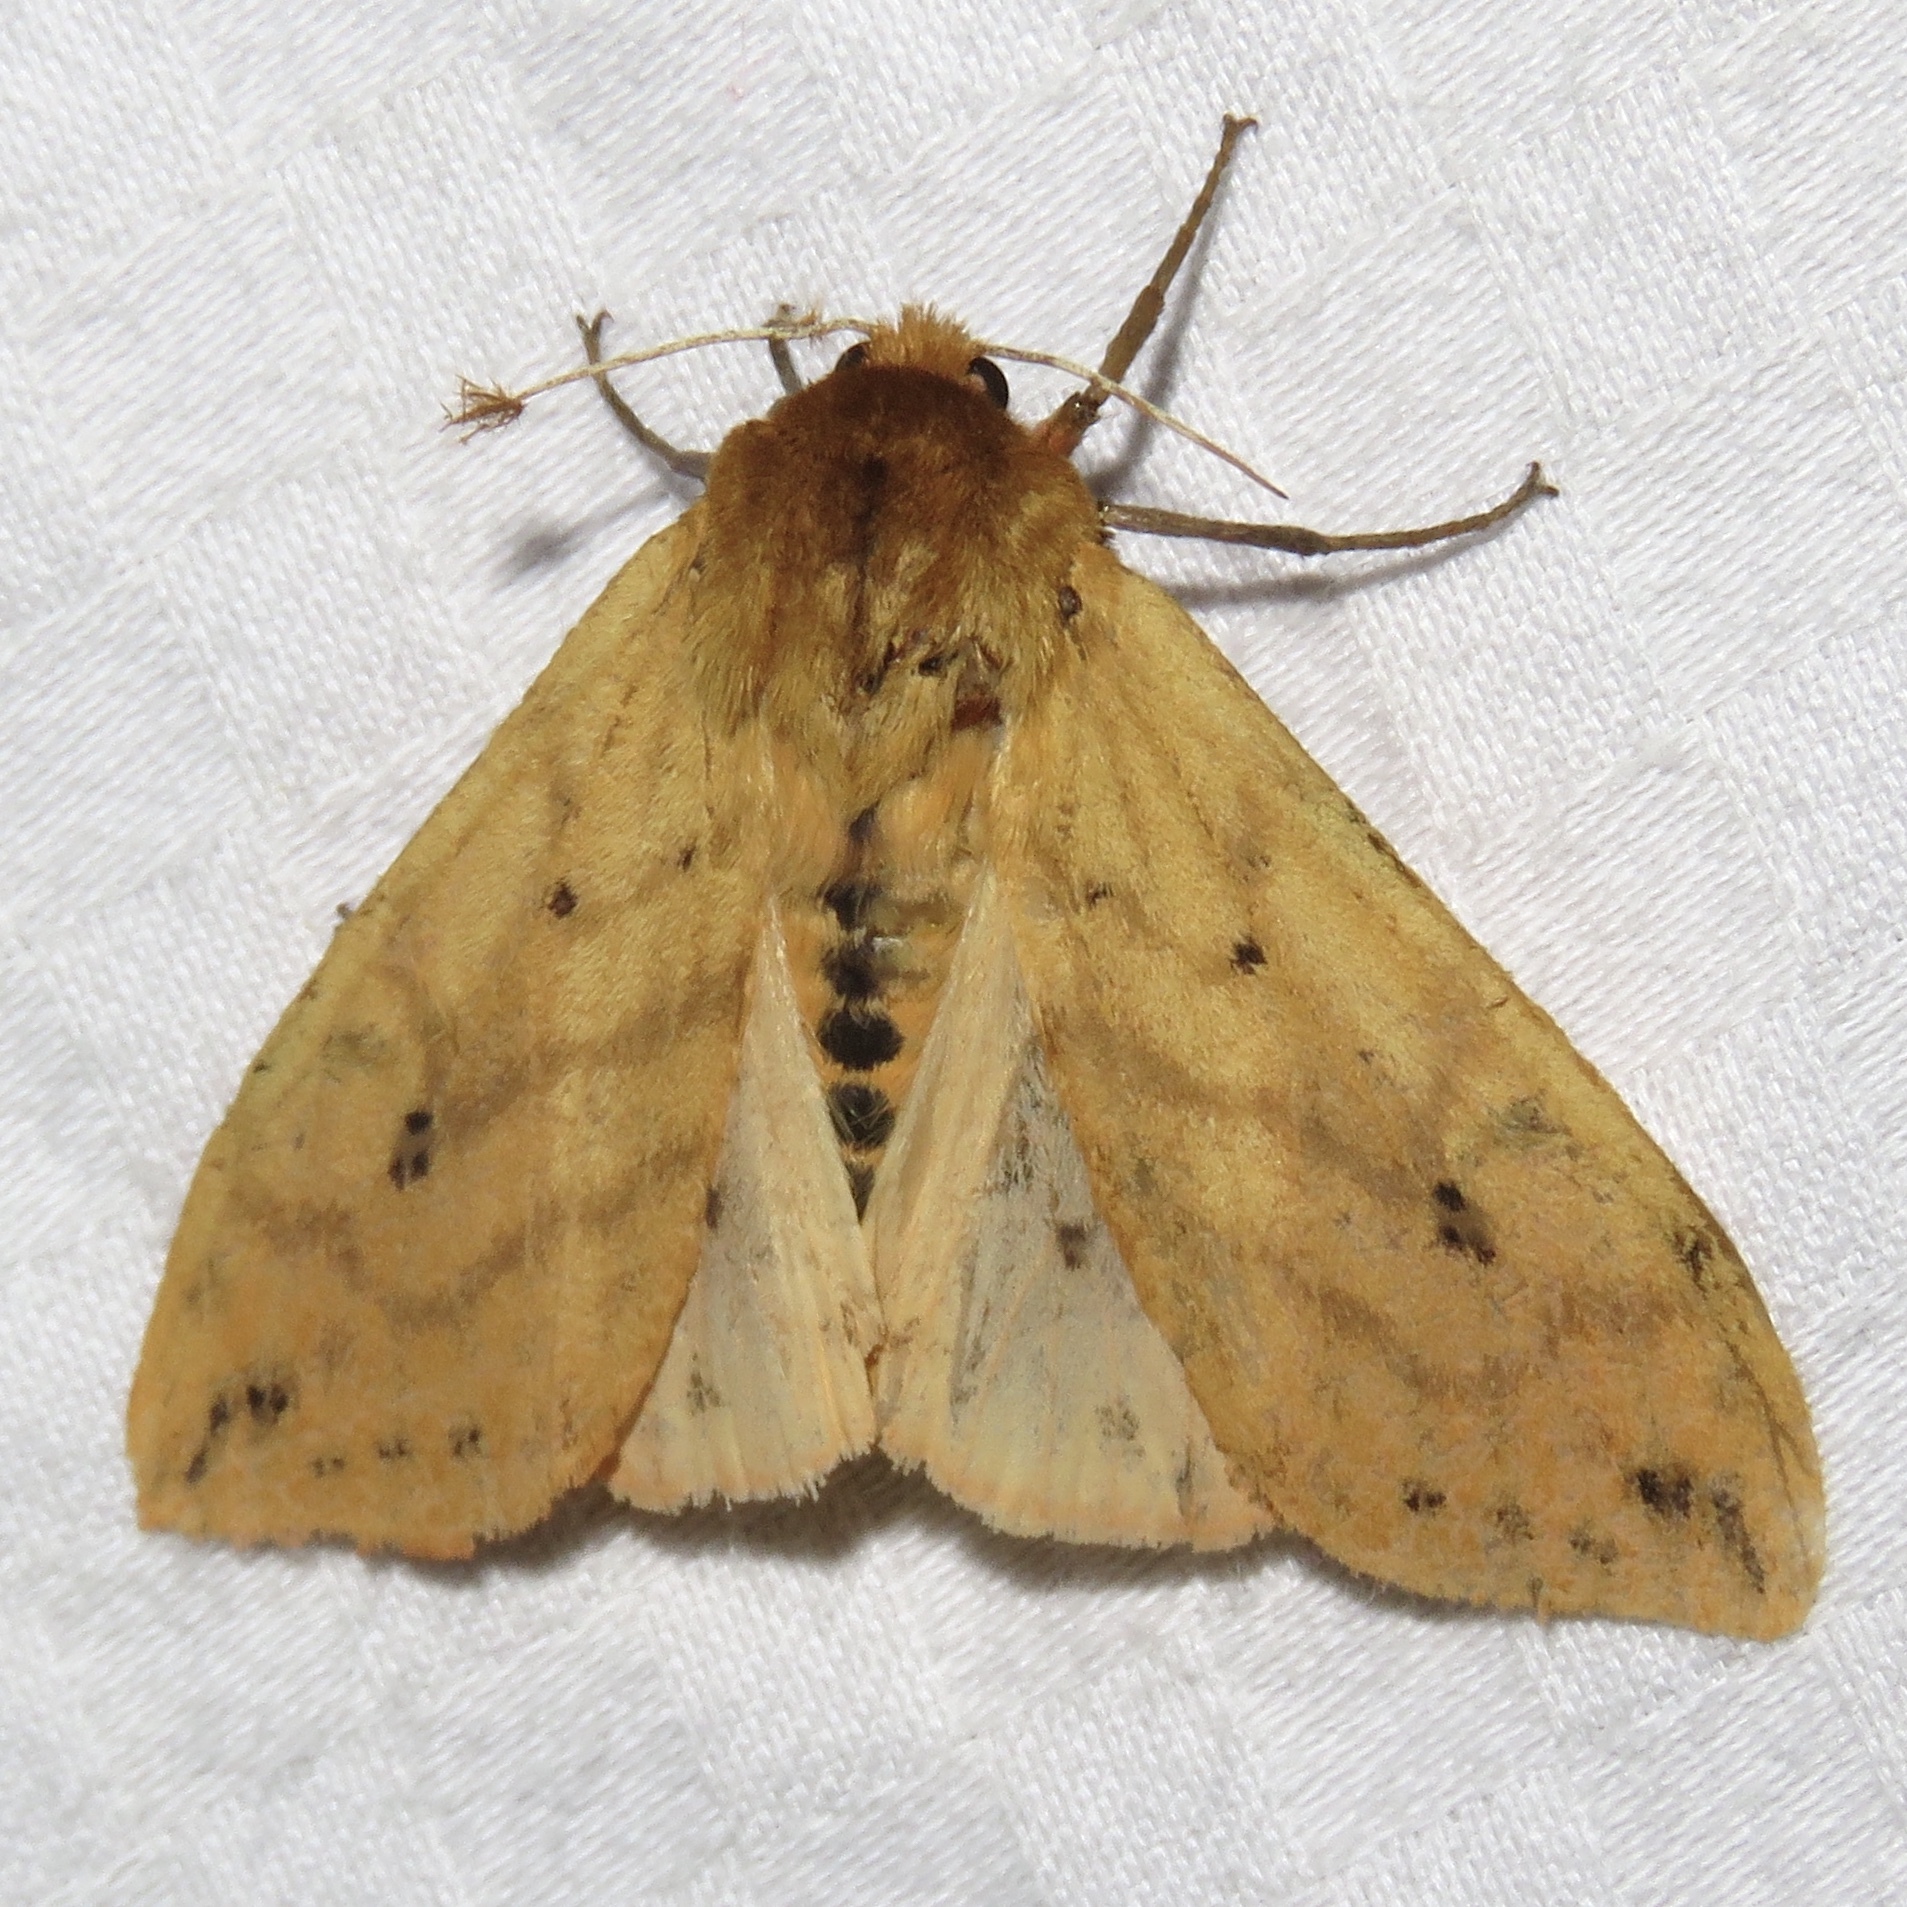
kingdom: Animalia
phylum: Arthropoda
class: Insecta
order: Lepidoptera
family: Erebidae
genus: Pyrrharctia
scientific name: Pyrrharctia isabella
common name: Isabella tiger moth
